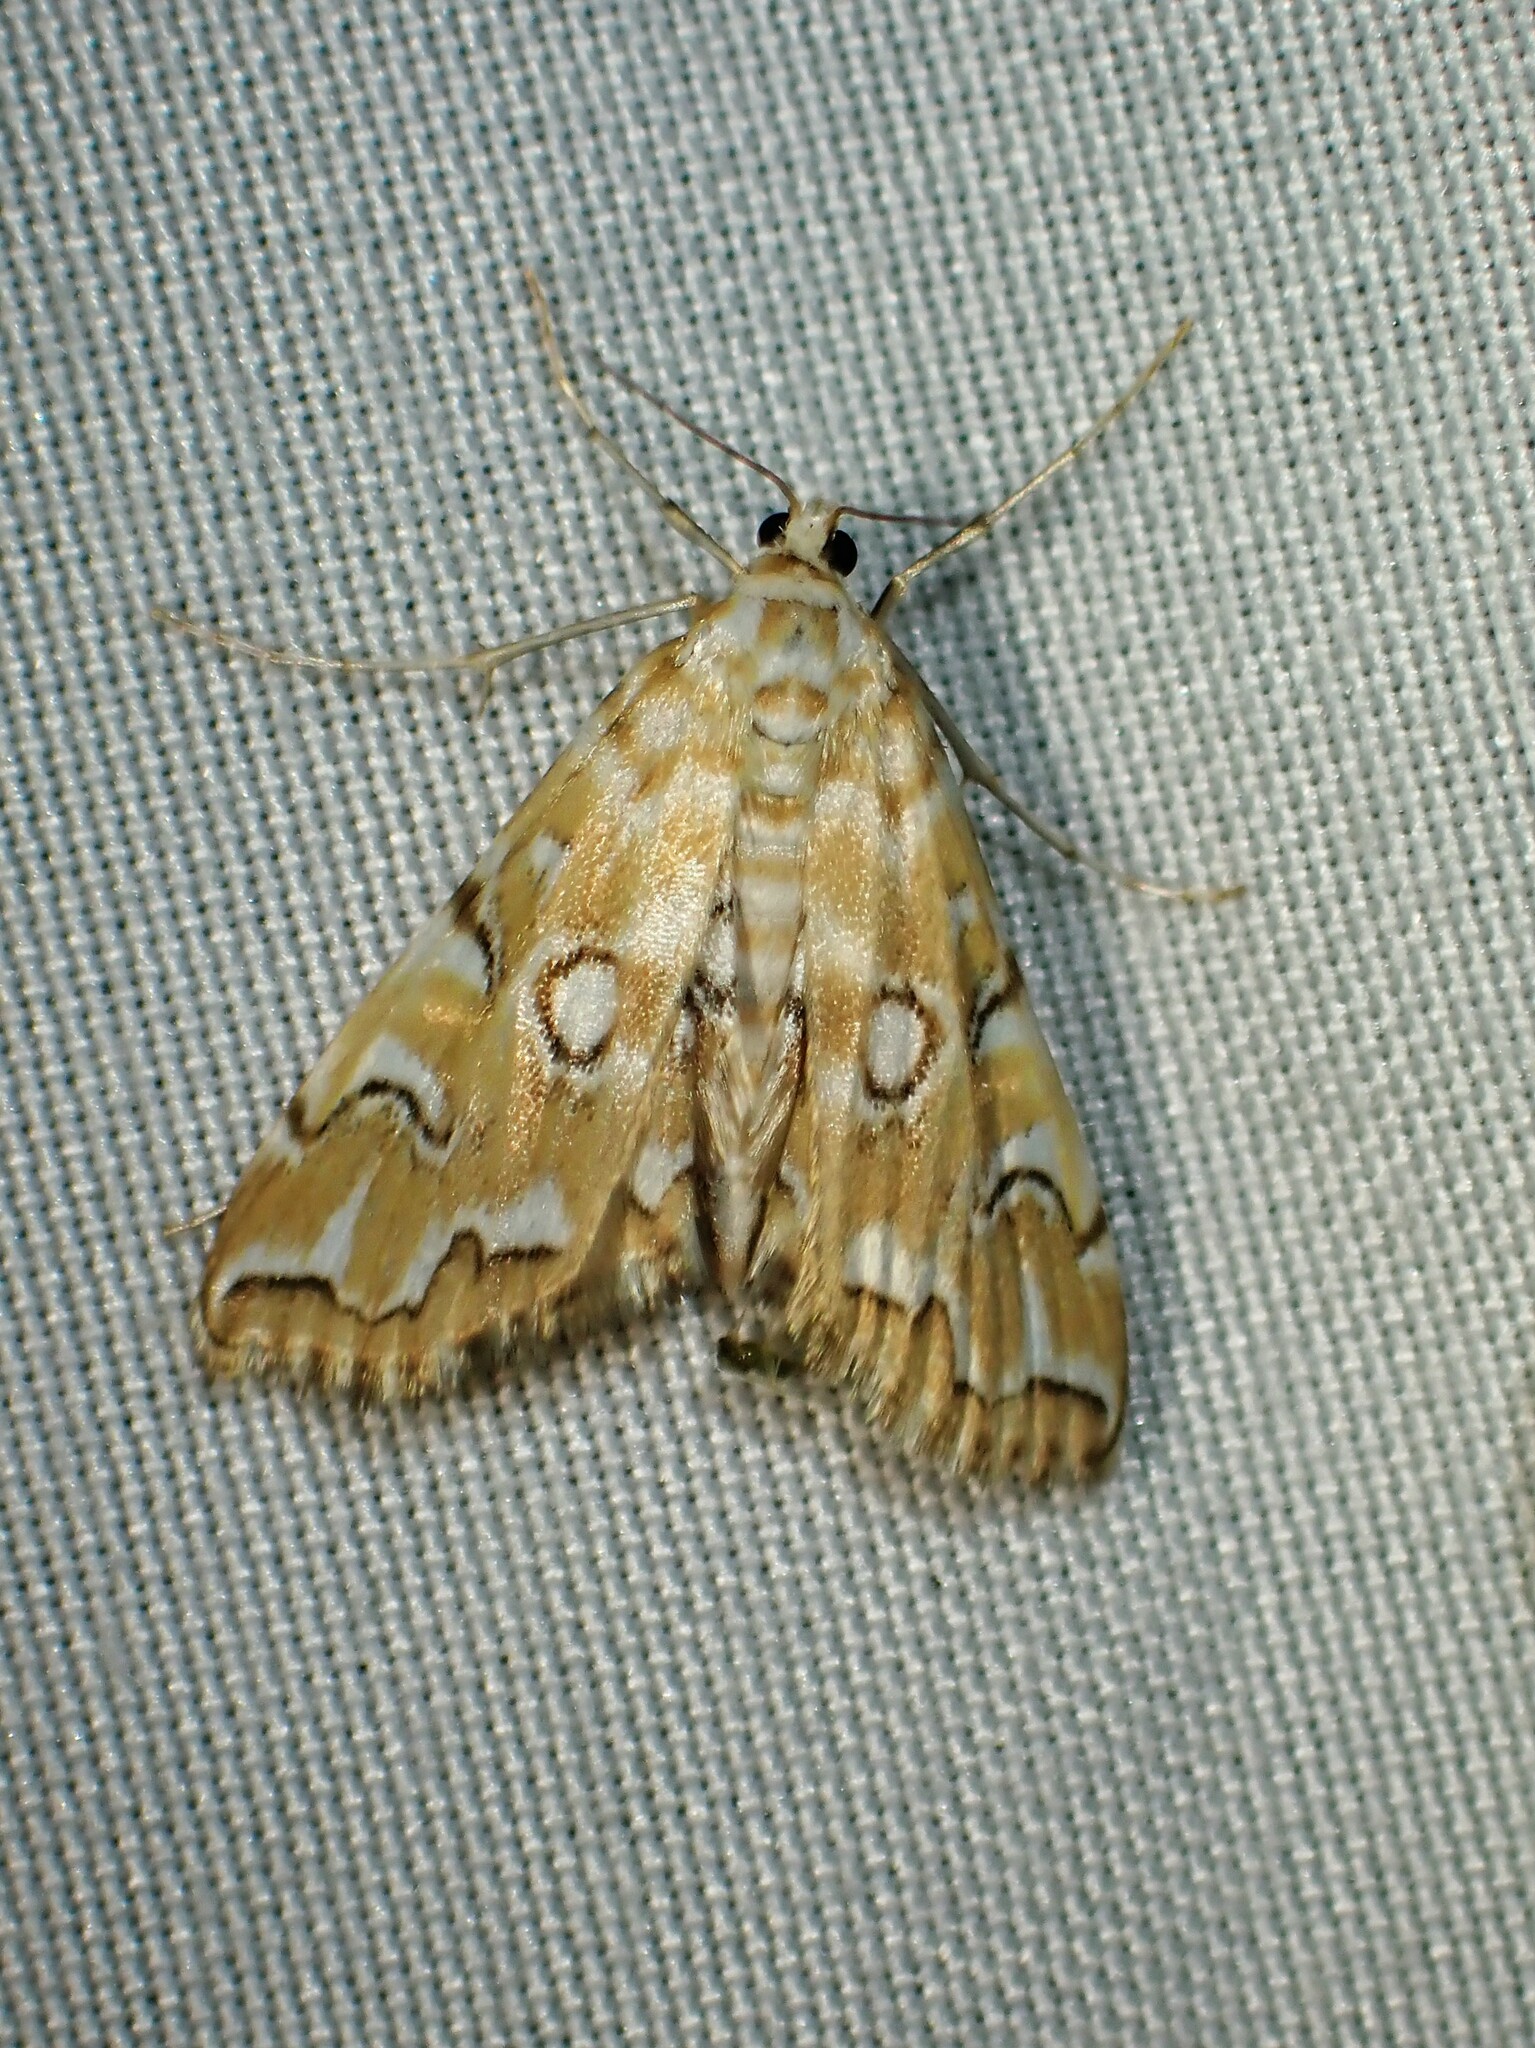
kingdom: Animalia
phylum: Arthropoda
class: Insecta
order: Lepidoptera
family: Crambidae
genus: Elophila
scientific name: Elophila icciusalis
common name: Pondside pyralid moth
